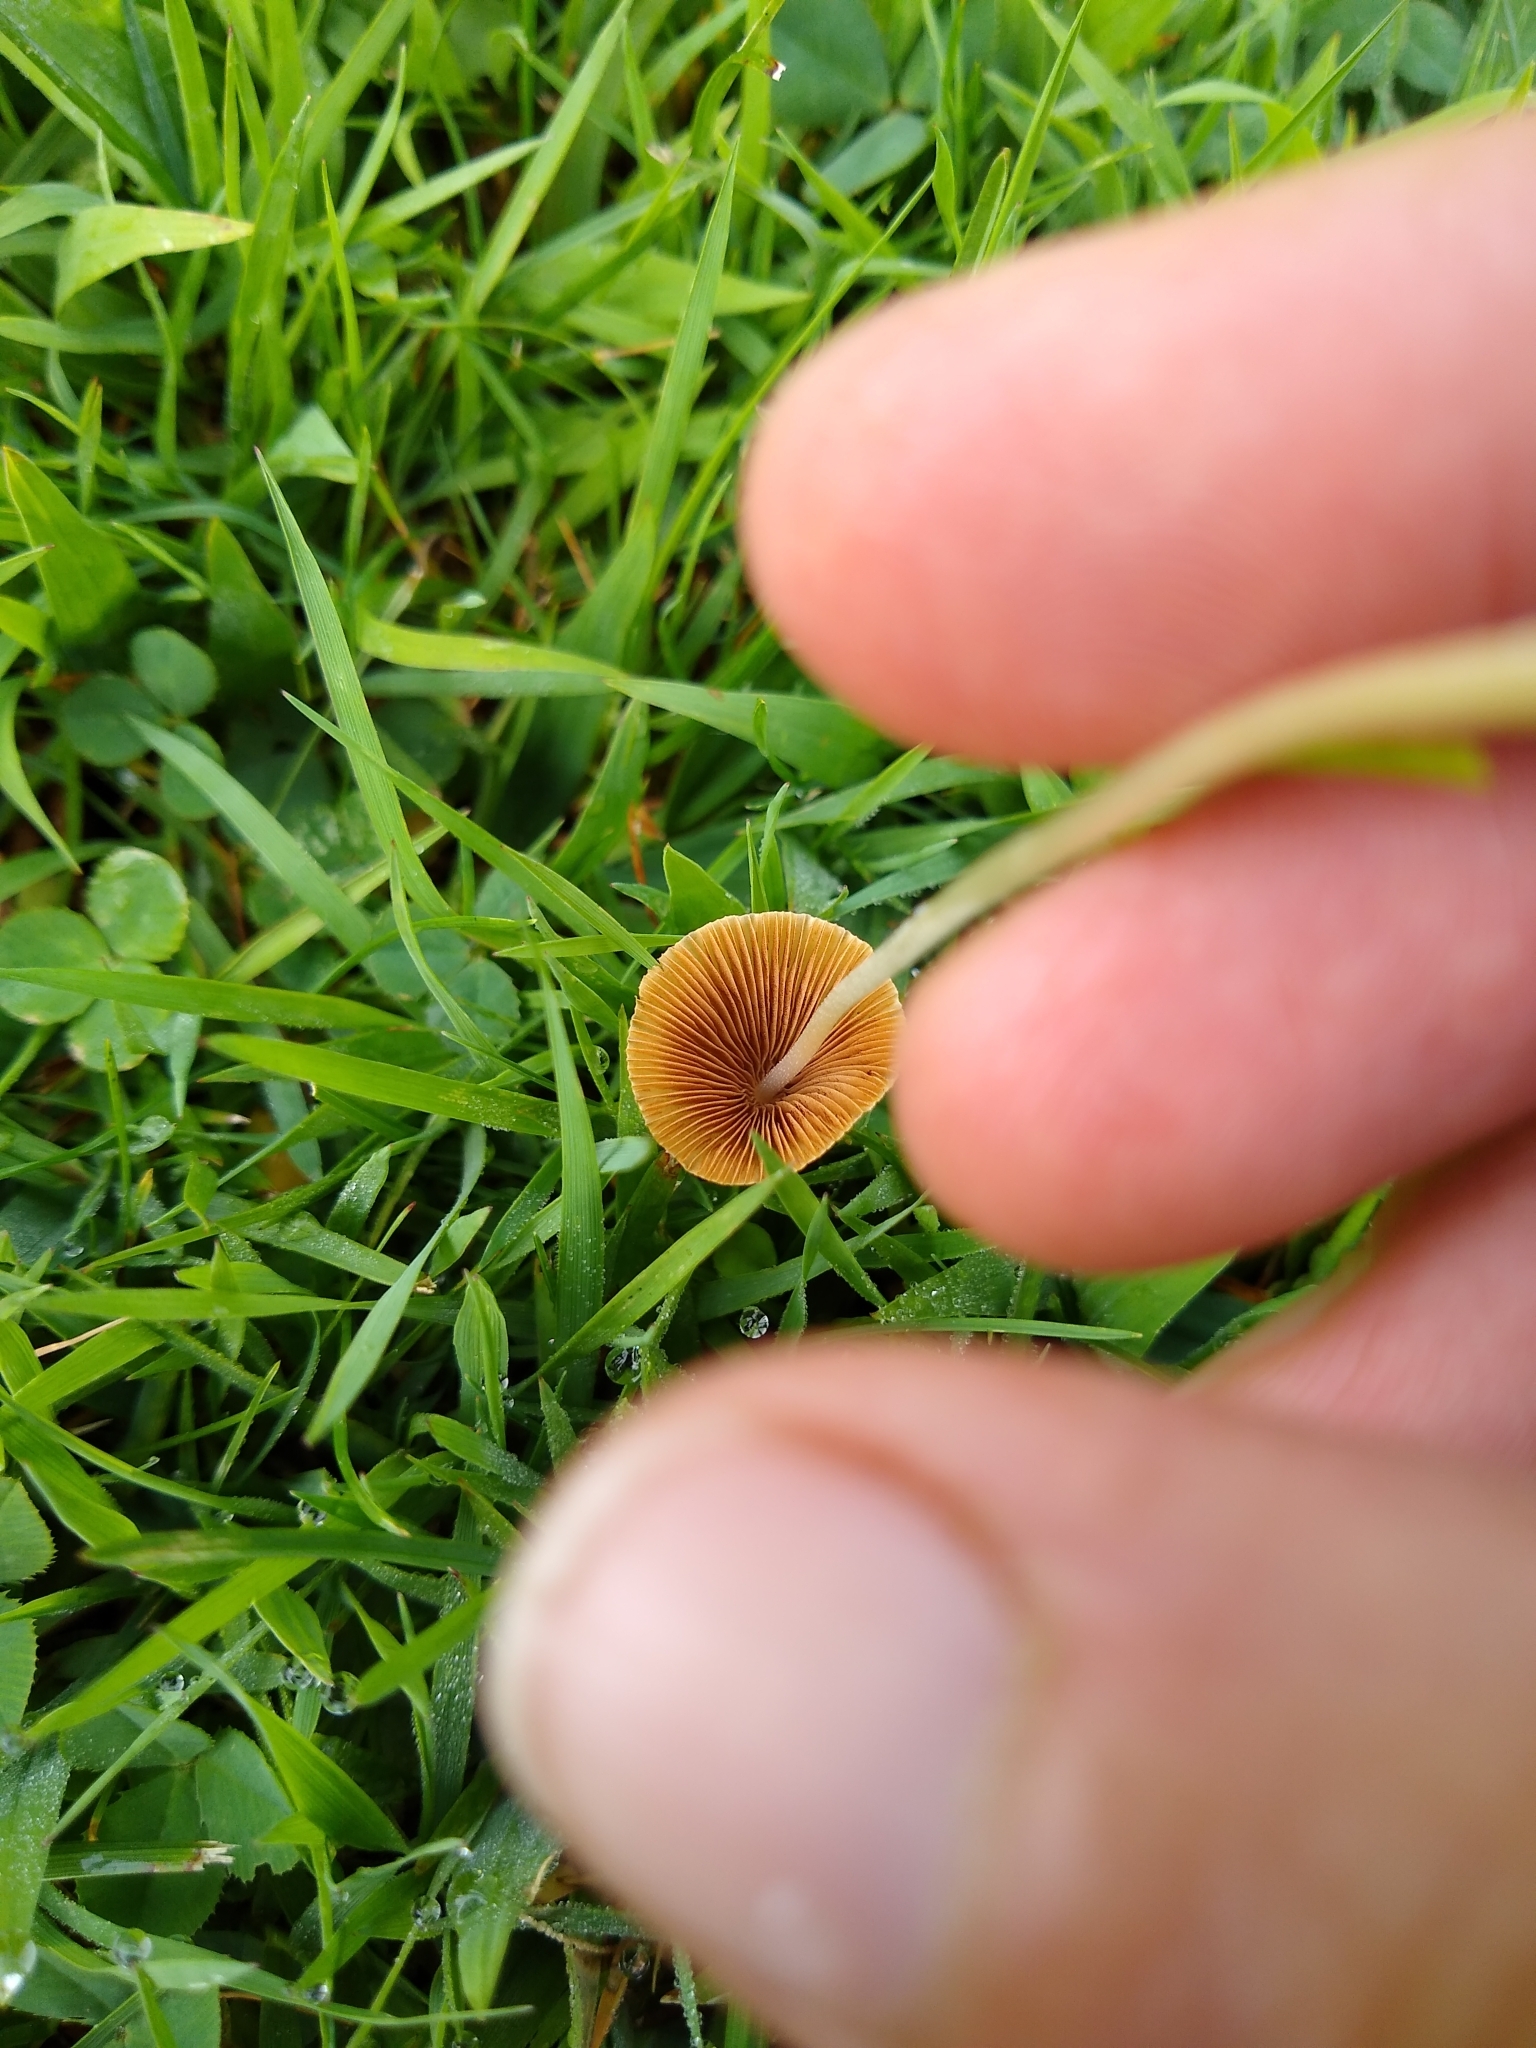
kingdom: Fungi
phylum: Basidiomycota
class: Agaricomycetes
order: Agaricales
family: Bolbitiaceae
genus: Conocybe
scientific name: Conocybe apala
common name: Milky conecap
